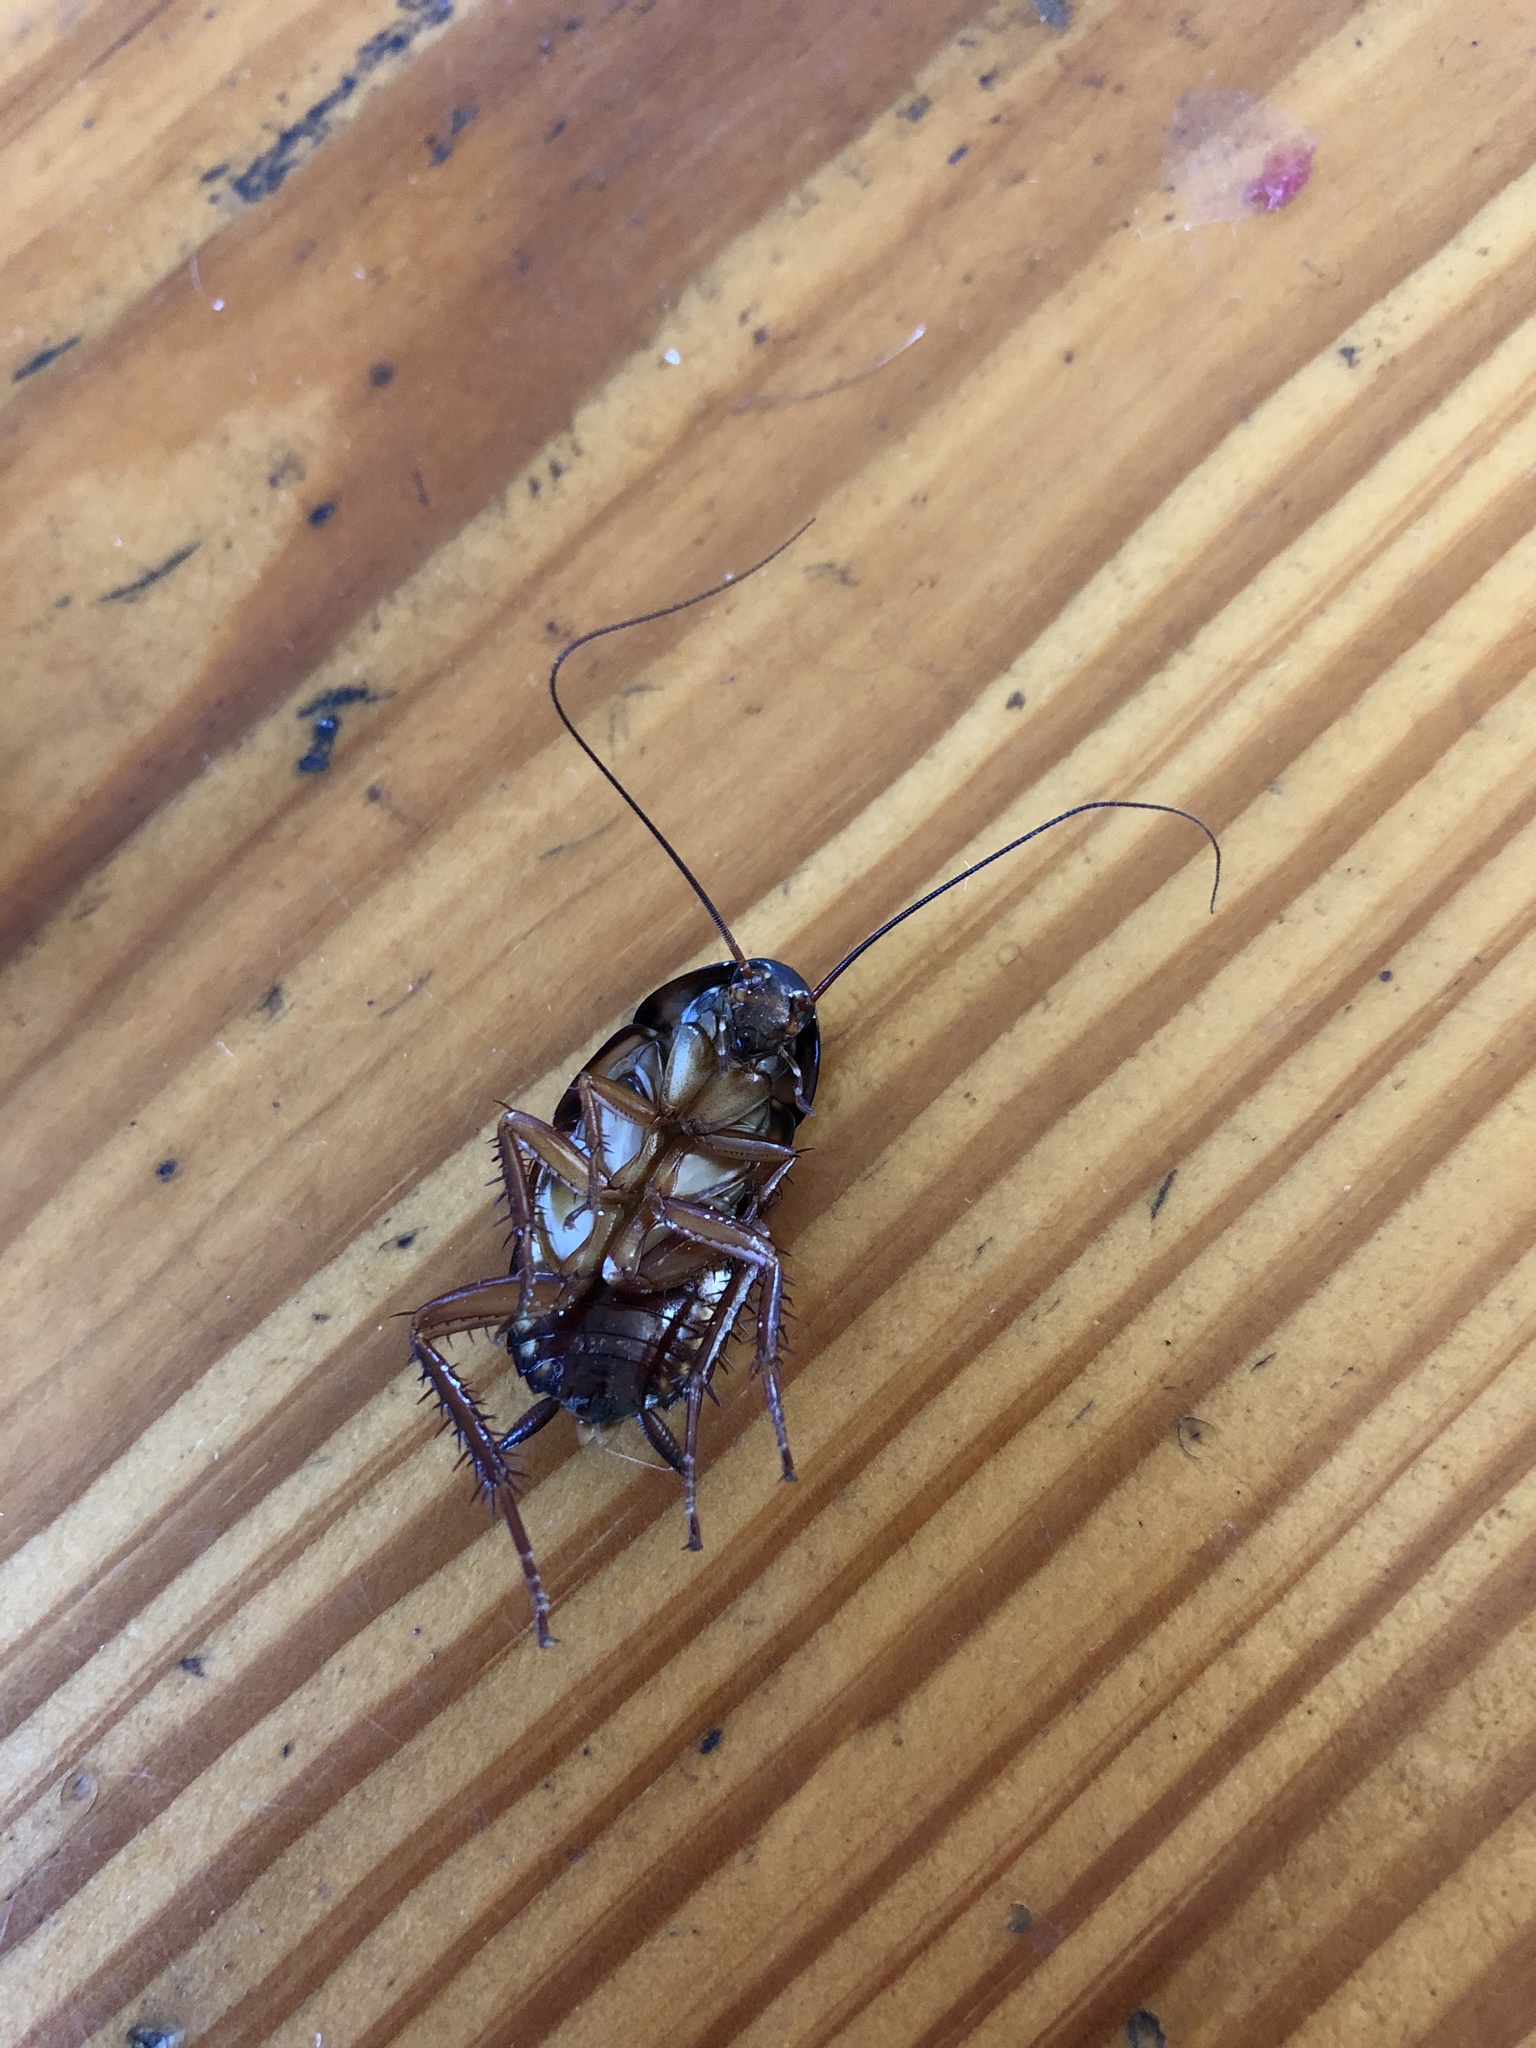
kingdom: Animalia
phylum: Arthropoda
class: Insecta
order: Blattodea
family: Blattidae
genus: Periplaneta
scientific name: Periplaneta australasiae
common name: Australian cockroach
